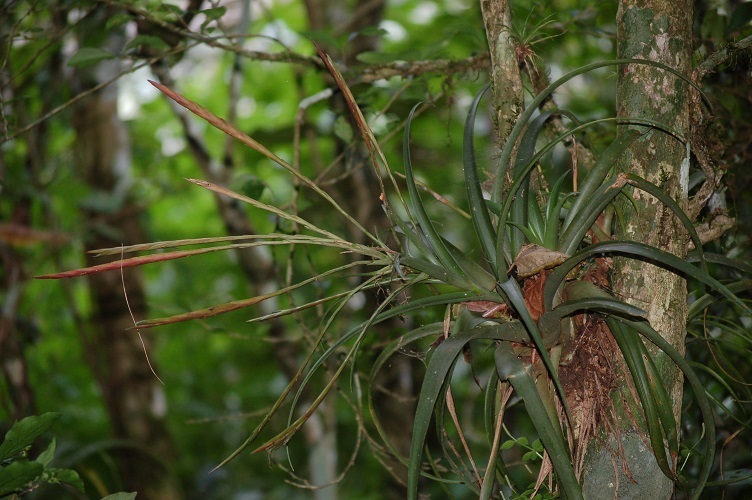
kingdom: Plantae
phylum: Tracheophyta
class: Liliopsida
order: Poales
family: Bromeliaceae
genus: Tillandsia
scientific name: Tillandsia flabellata
